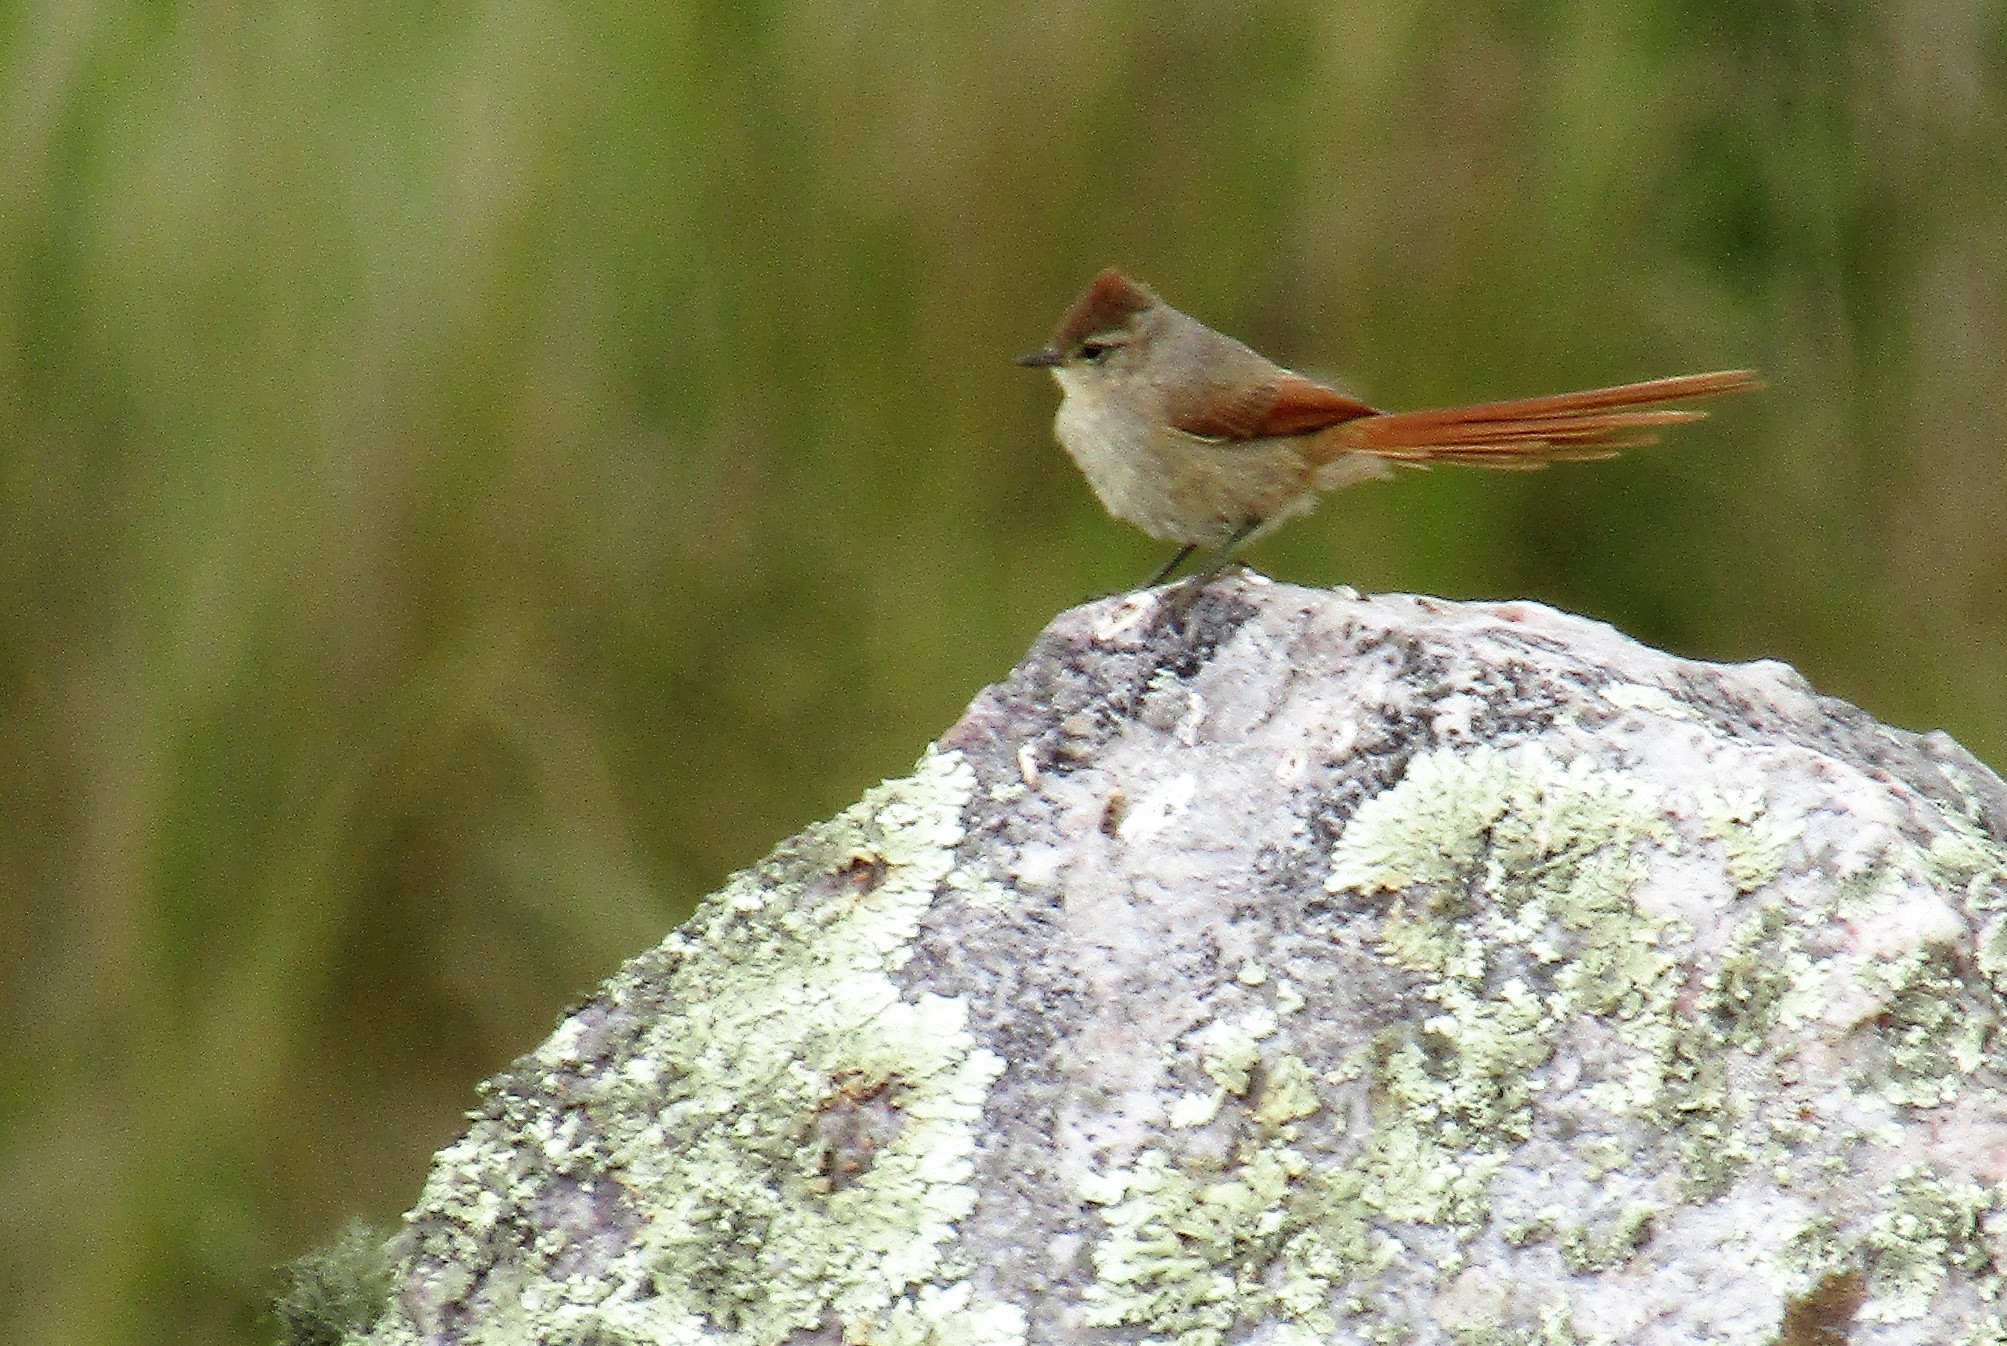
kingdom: Animalia
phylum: Chordata
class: Aves
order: Passeriformes
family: Furnariidae
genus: Leptasthenura
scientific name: Leptasthenura fuliginiceps
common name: Brown-capped tit-spinetail
